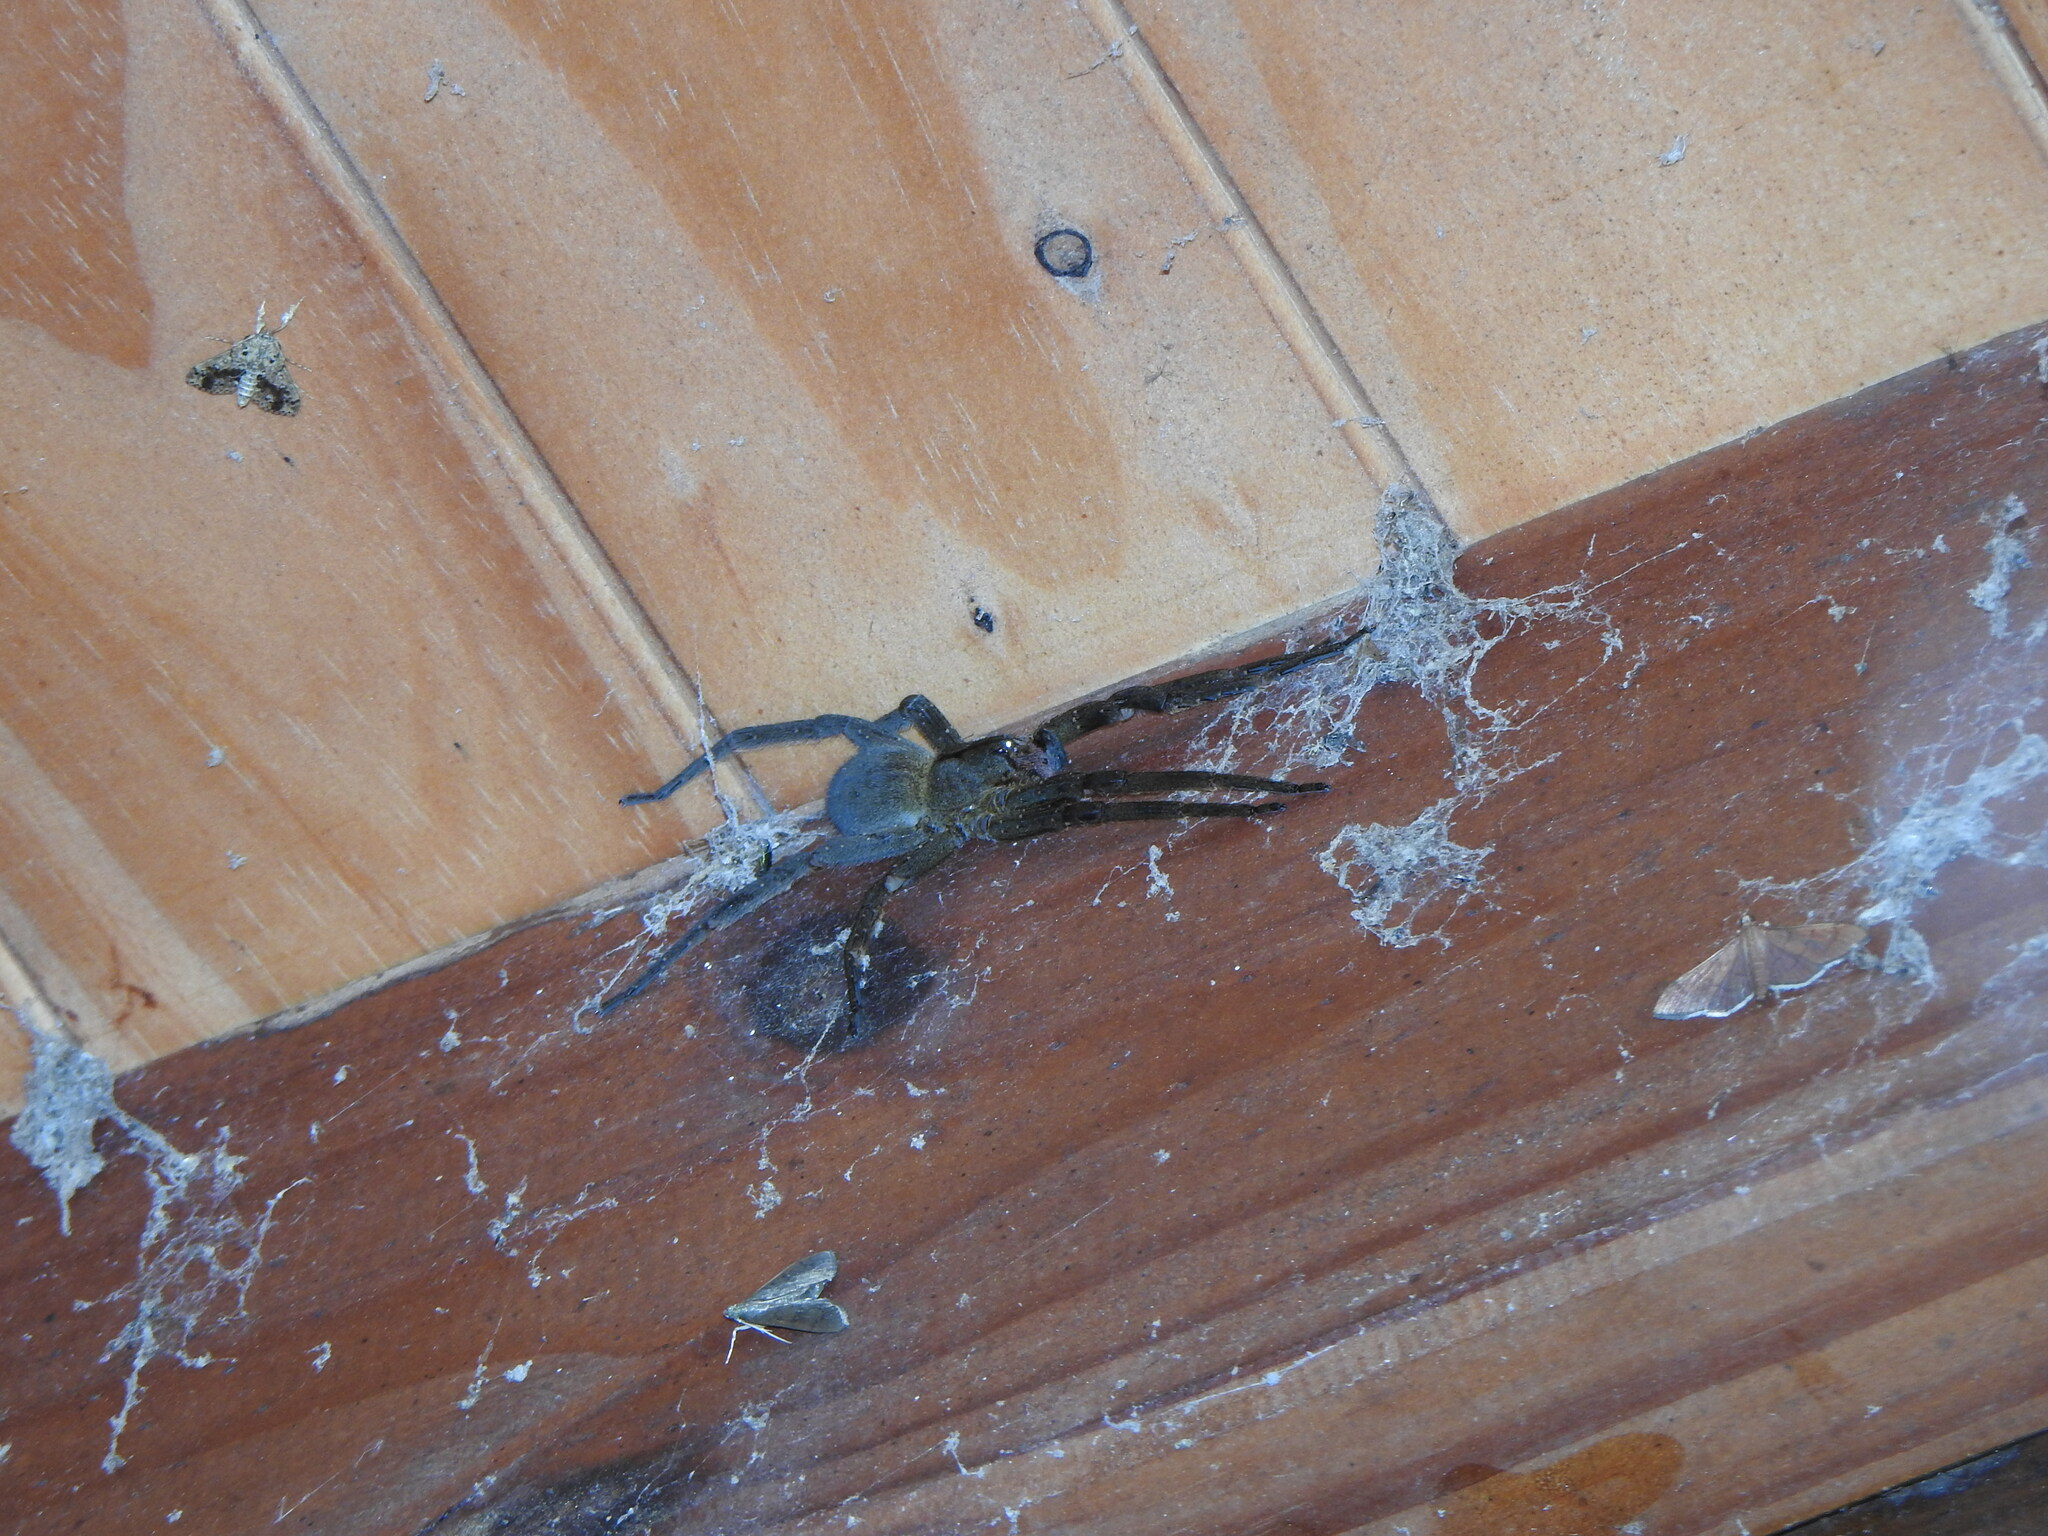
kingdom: Animalia
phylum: Arthropoda
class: Arachnida
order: Araneae
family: Ctenidae
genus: Phoneutria
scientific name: Phoneutria nigriventer
